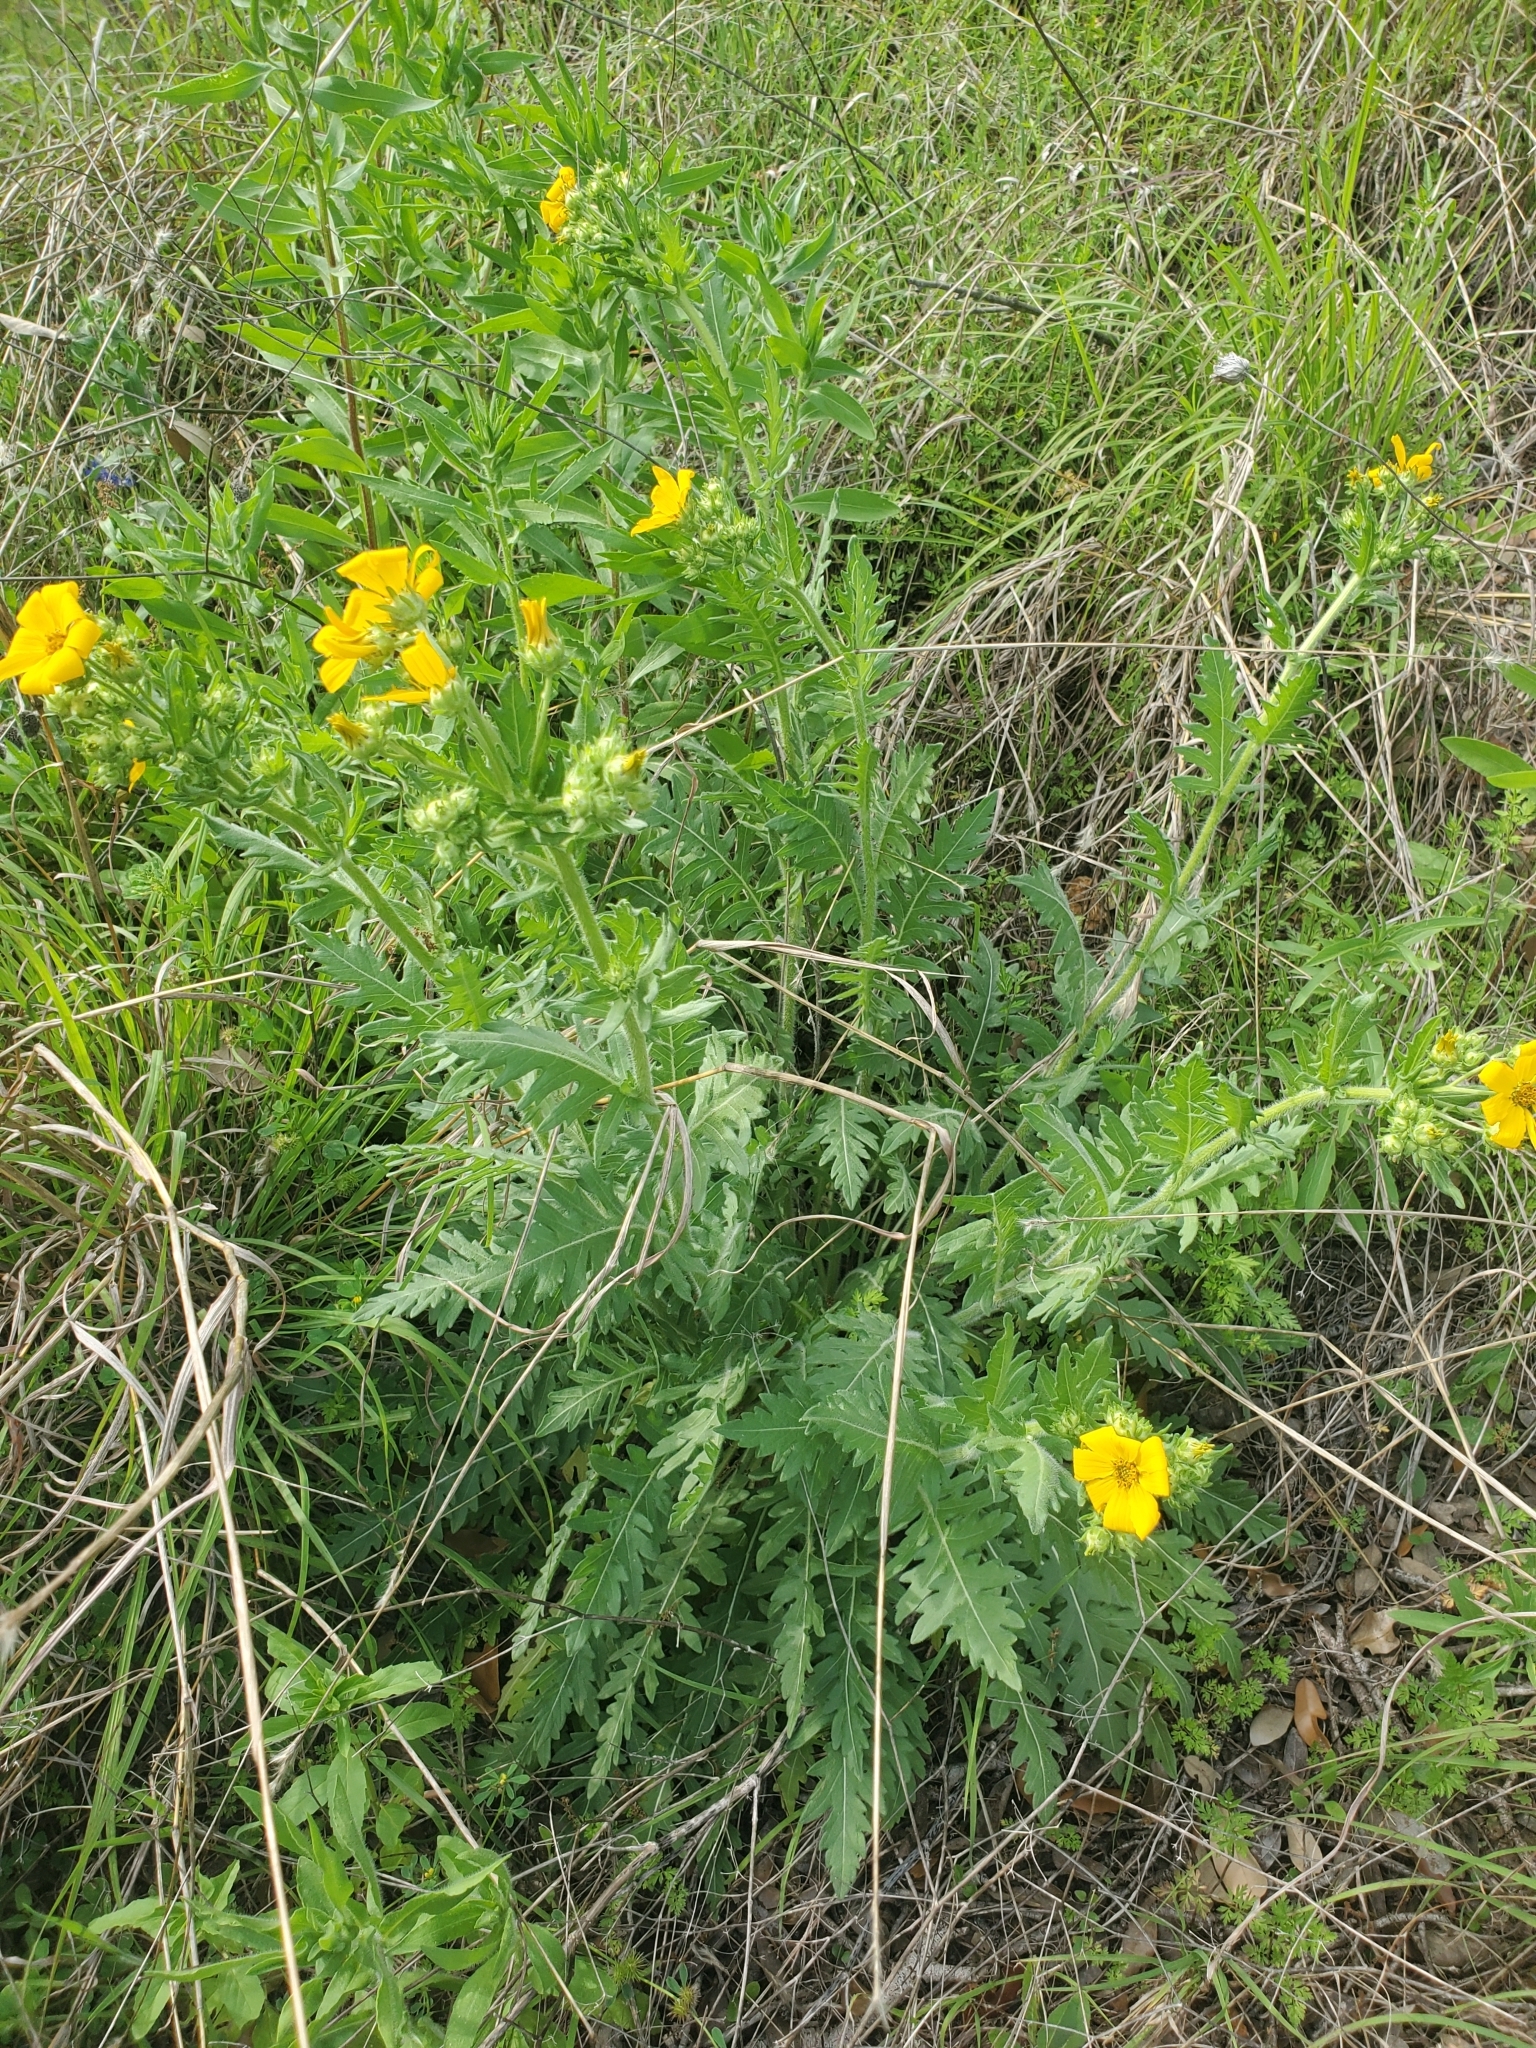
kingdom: Plantae
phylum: Tracheophyta
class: Magnoliopsida
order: Asterales
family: Asteraceae
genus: Engelmannia
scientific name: Engelmannia peristenia
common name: Engelmann's daisy
